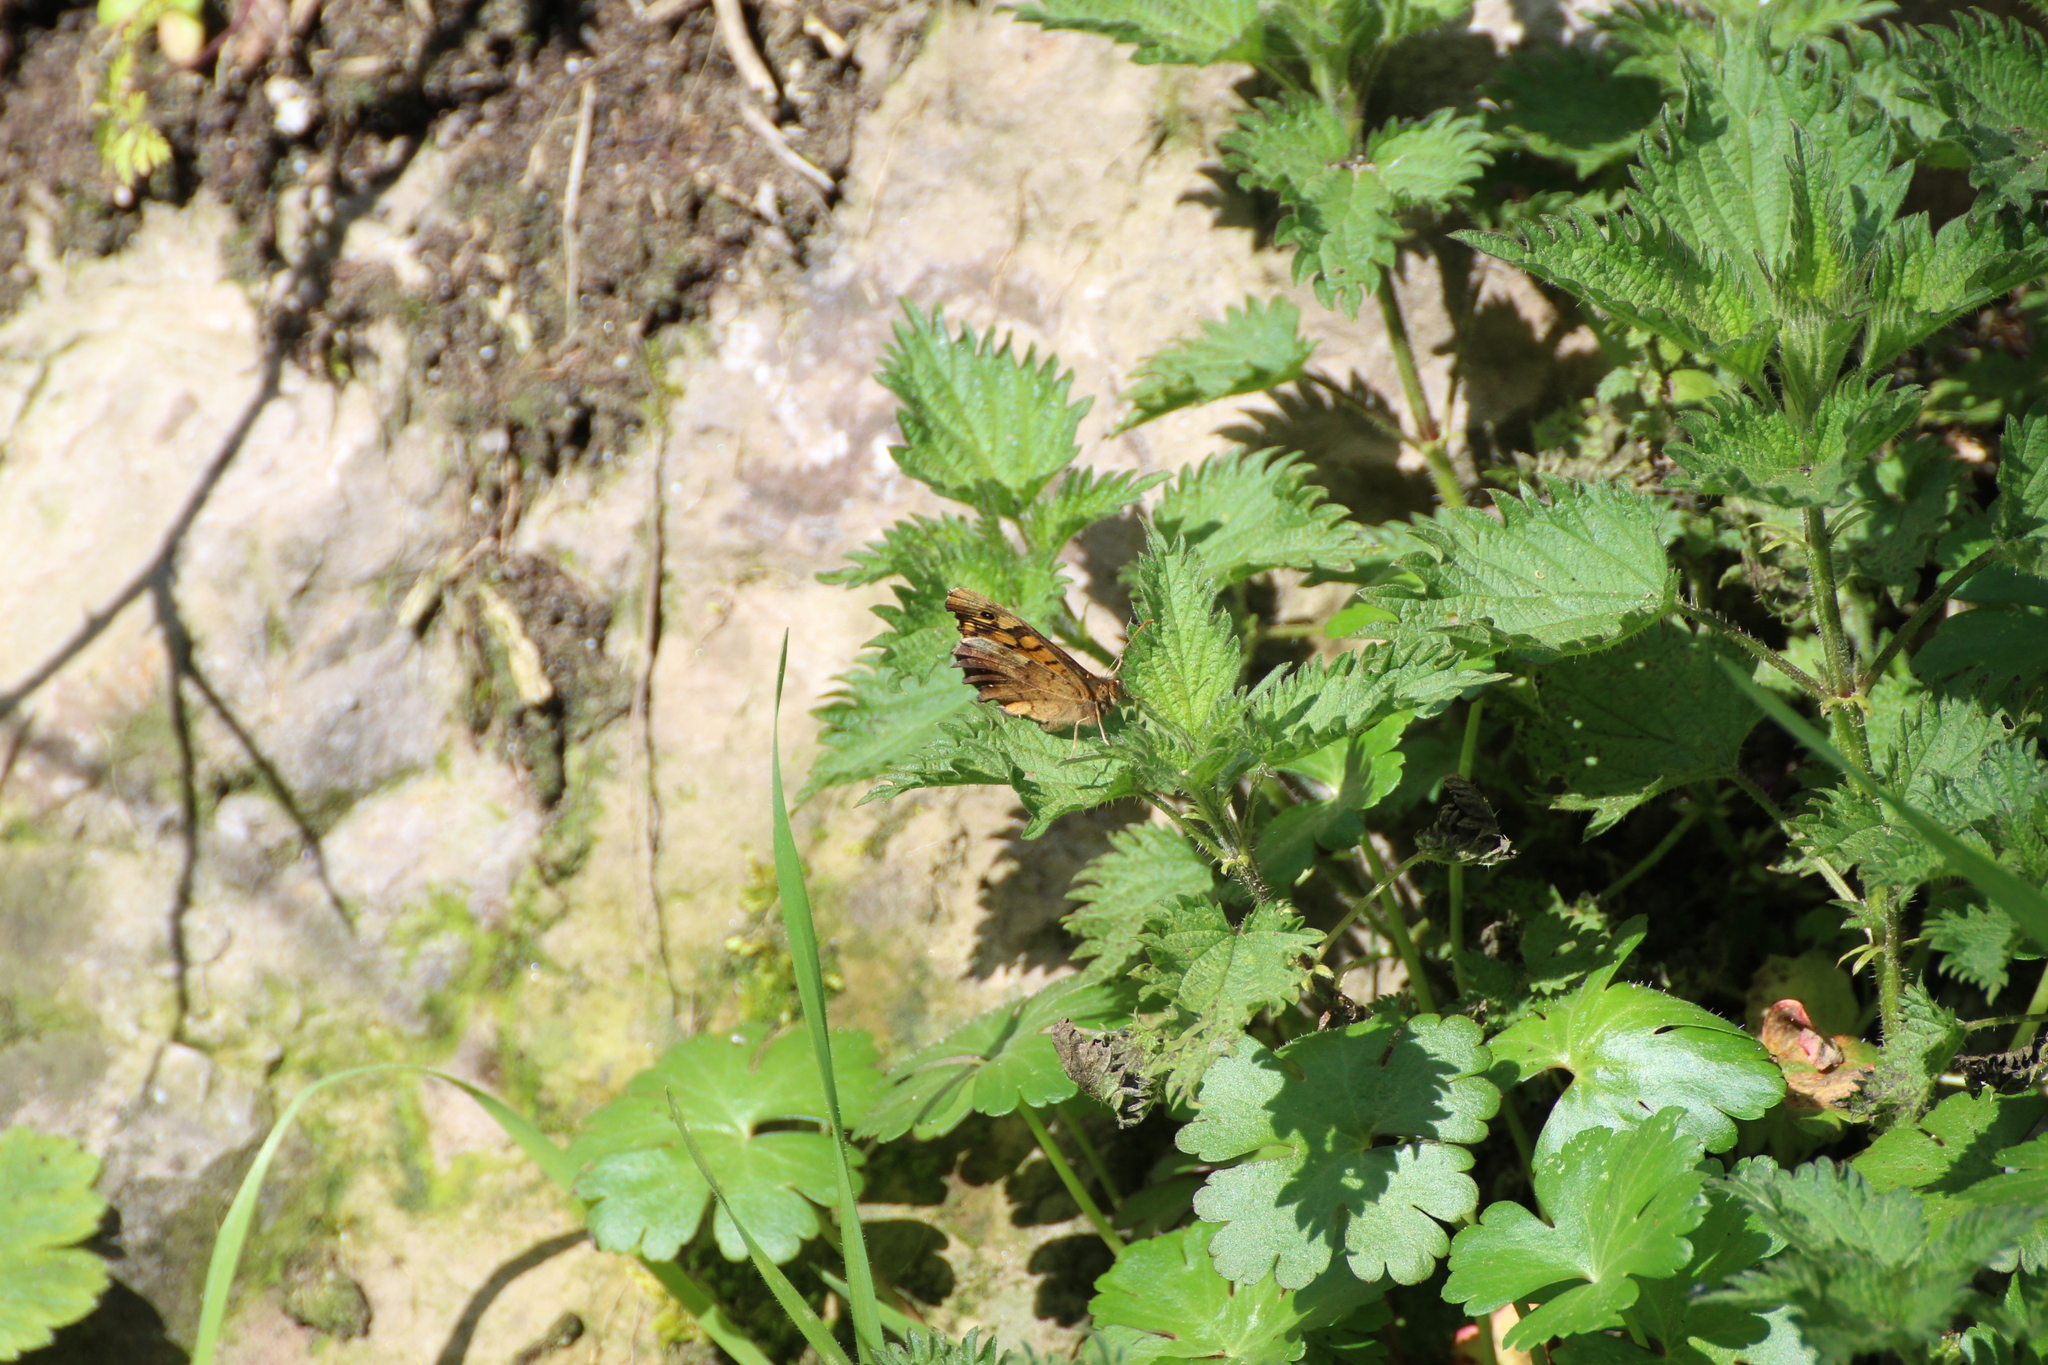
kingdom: Animalia
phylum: Arthropoda
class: Insecta
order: Lepidoptera
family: Nymphalidae
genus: Pararge
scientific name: Pararge aegeria
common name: Speckled wood
